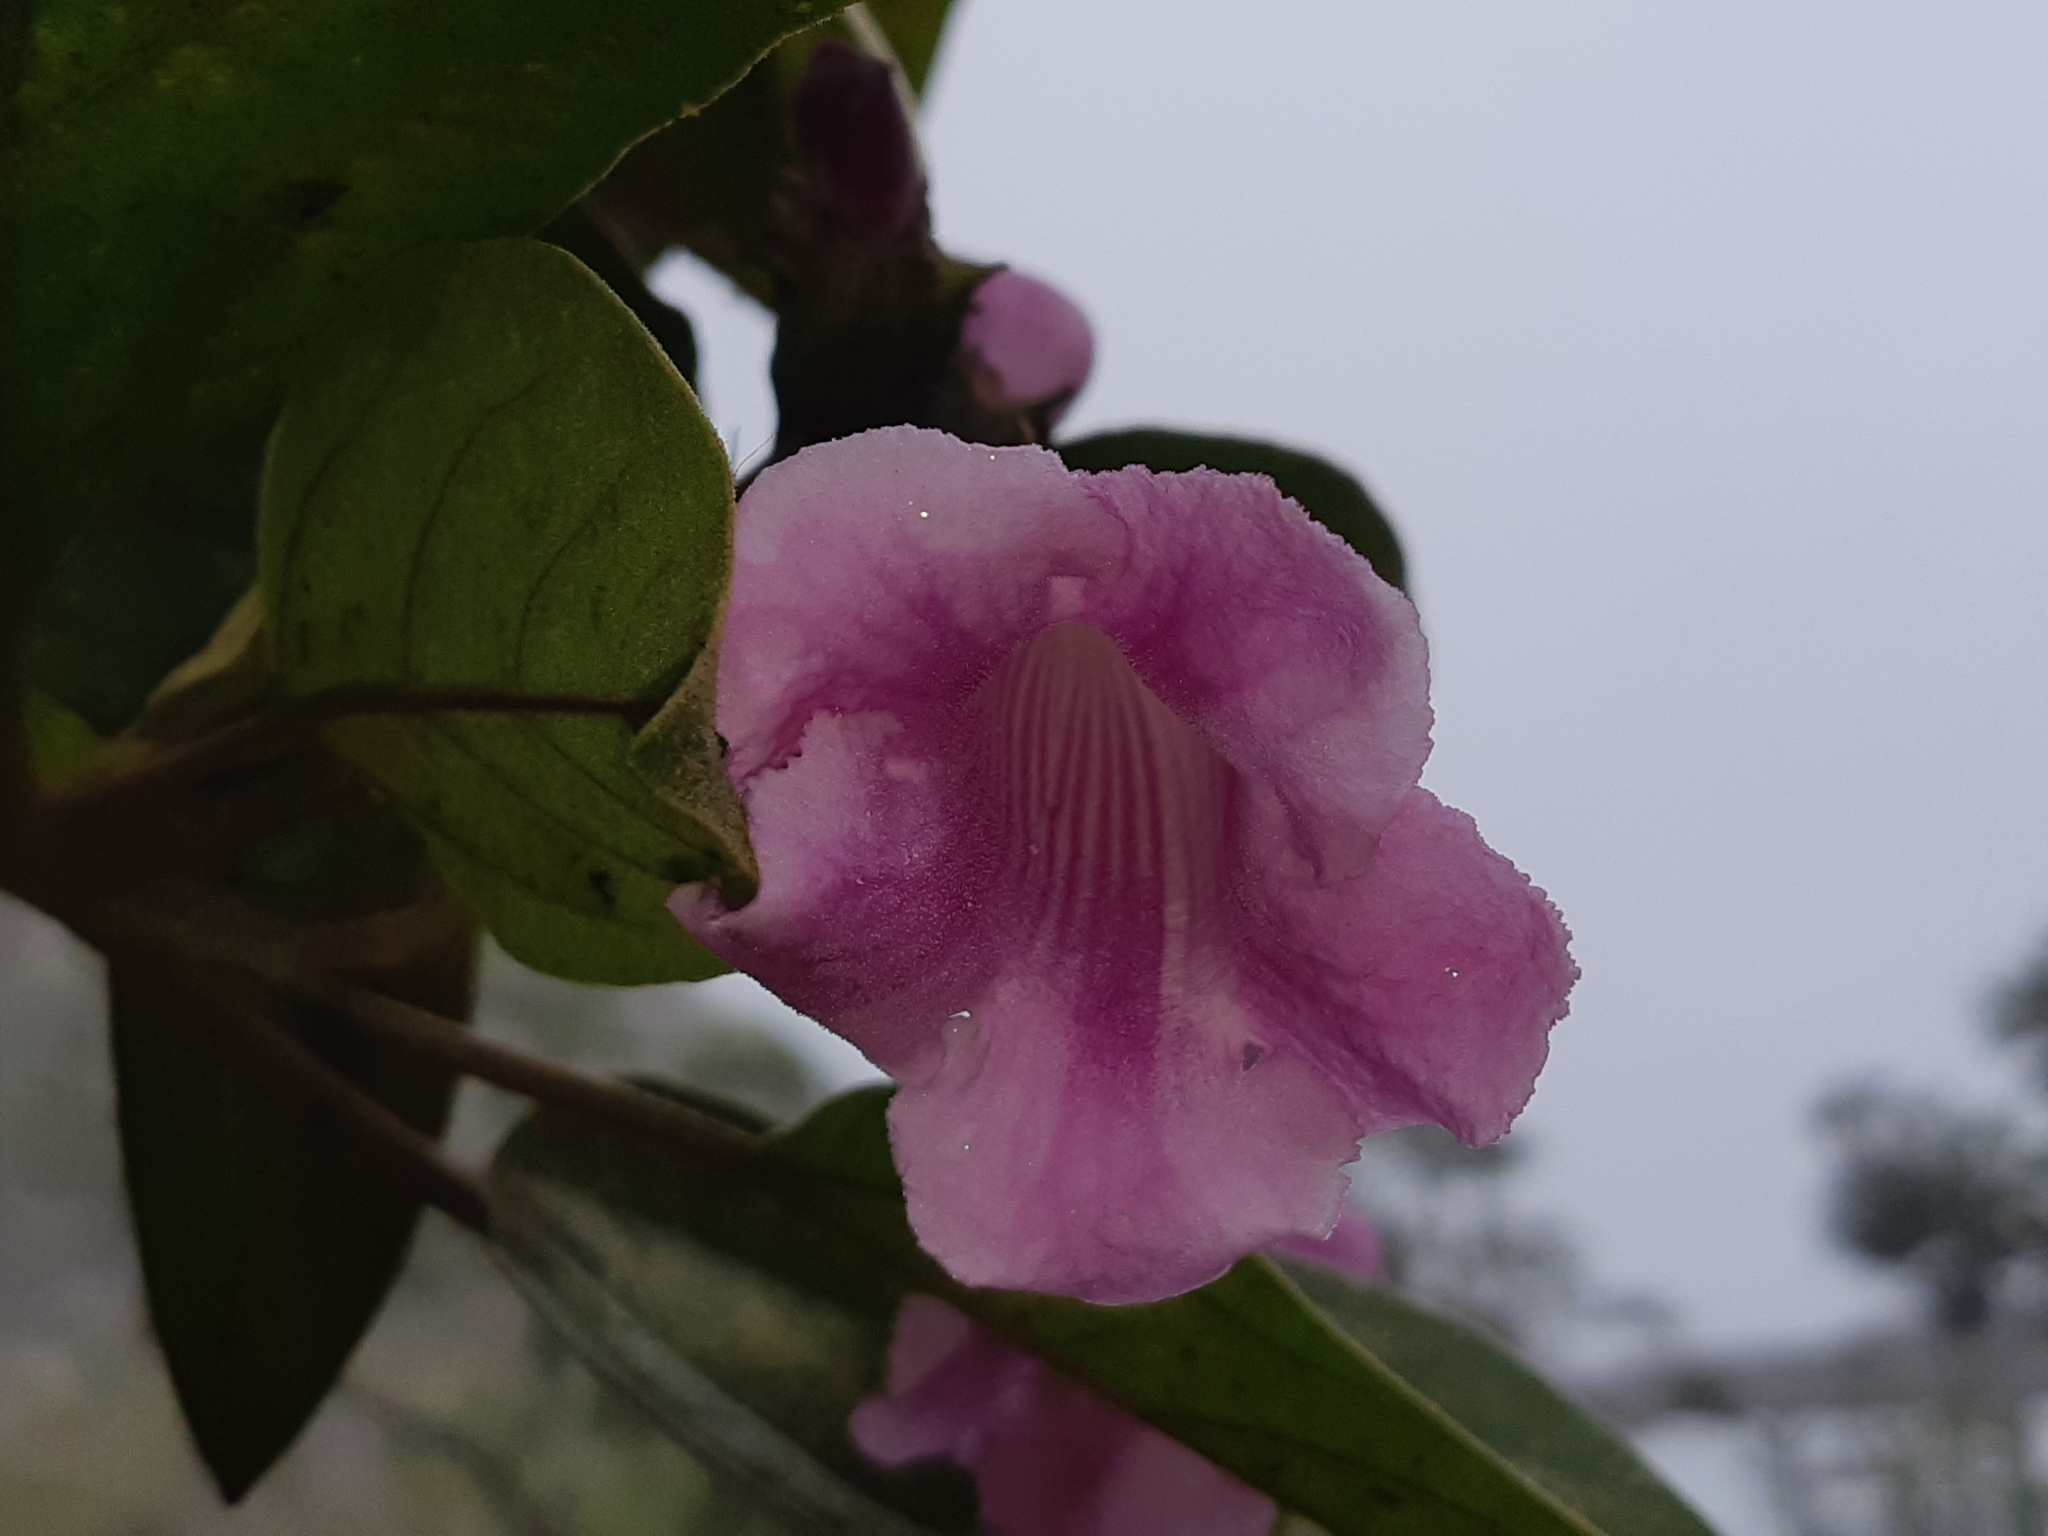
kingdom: Plantae
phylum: Tracheophyta
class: Magnoliopsida
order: Lamiales
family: Bignoniaceae
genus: Delostoma
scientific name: Delostoma integrifolium
